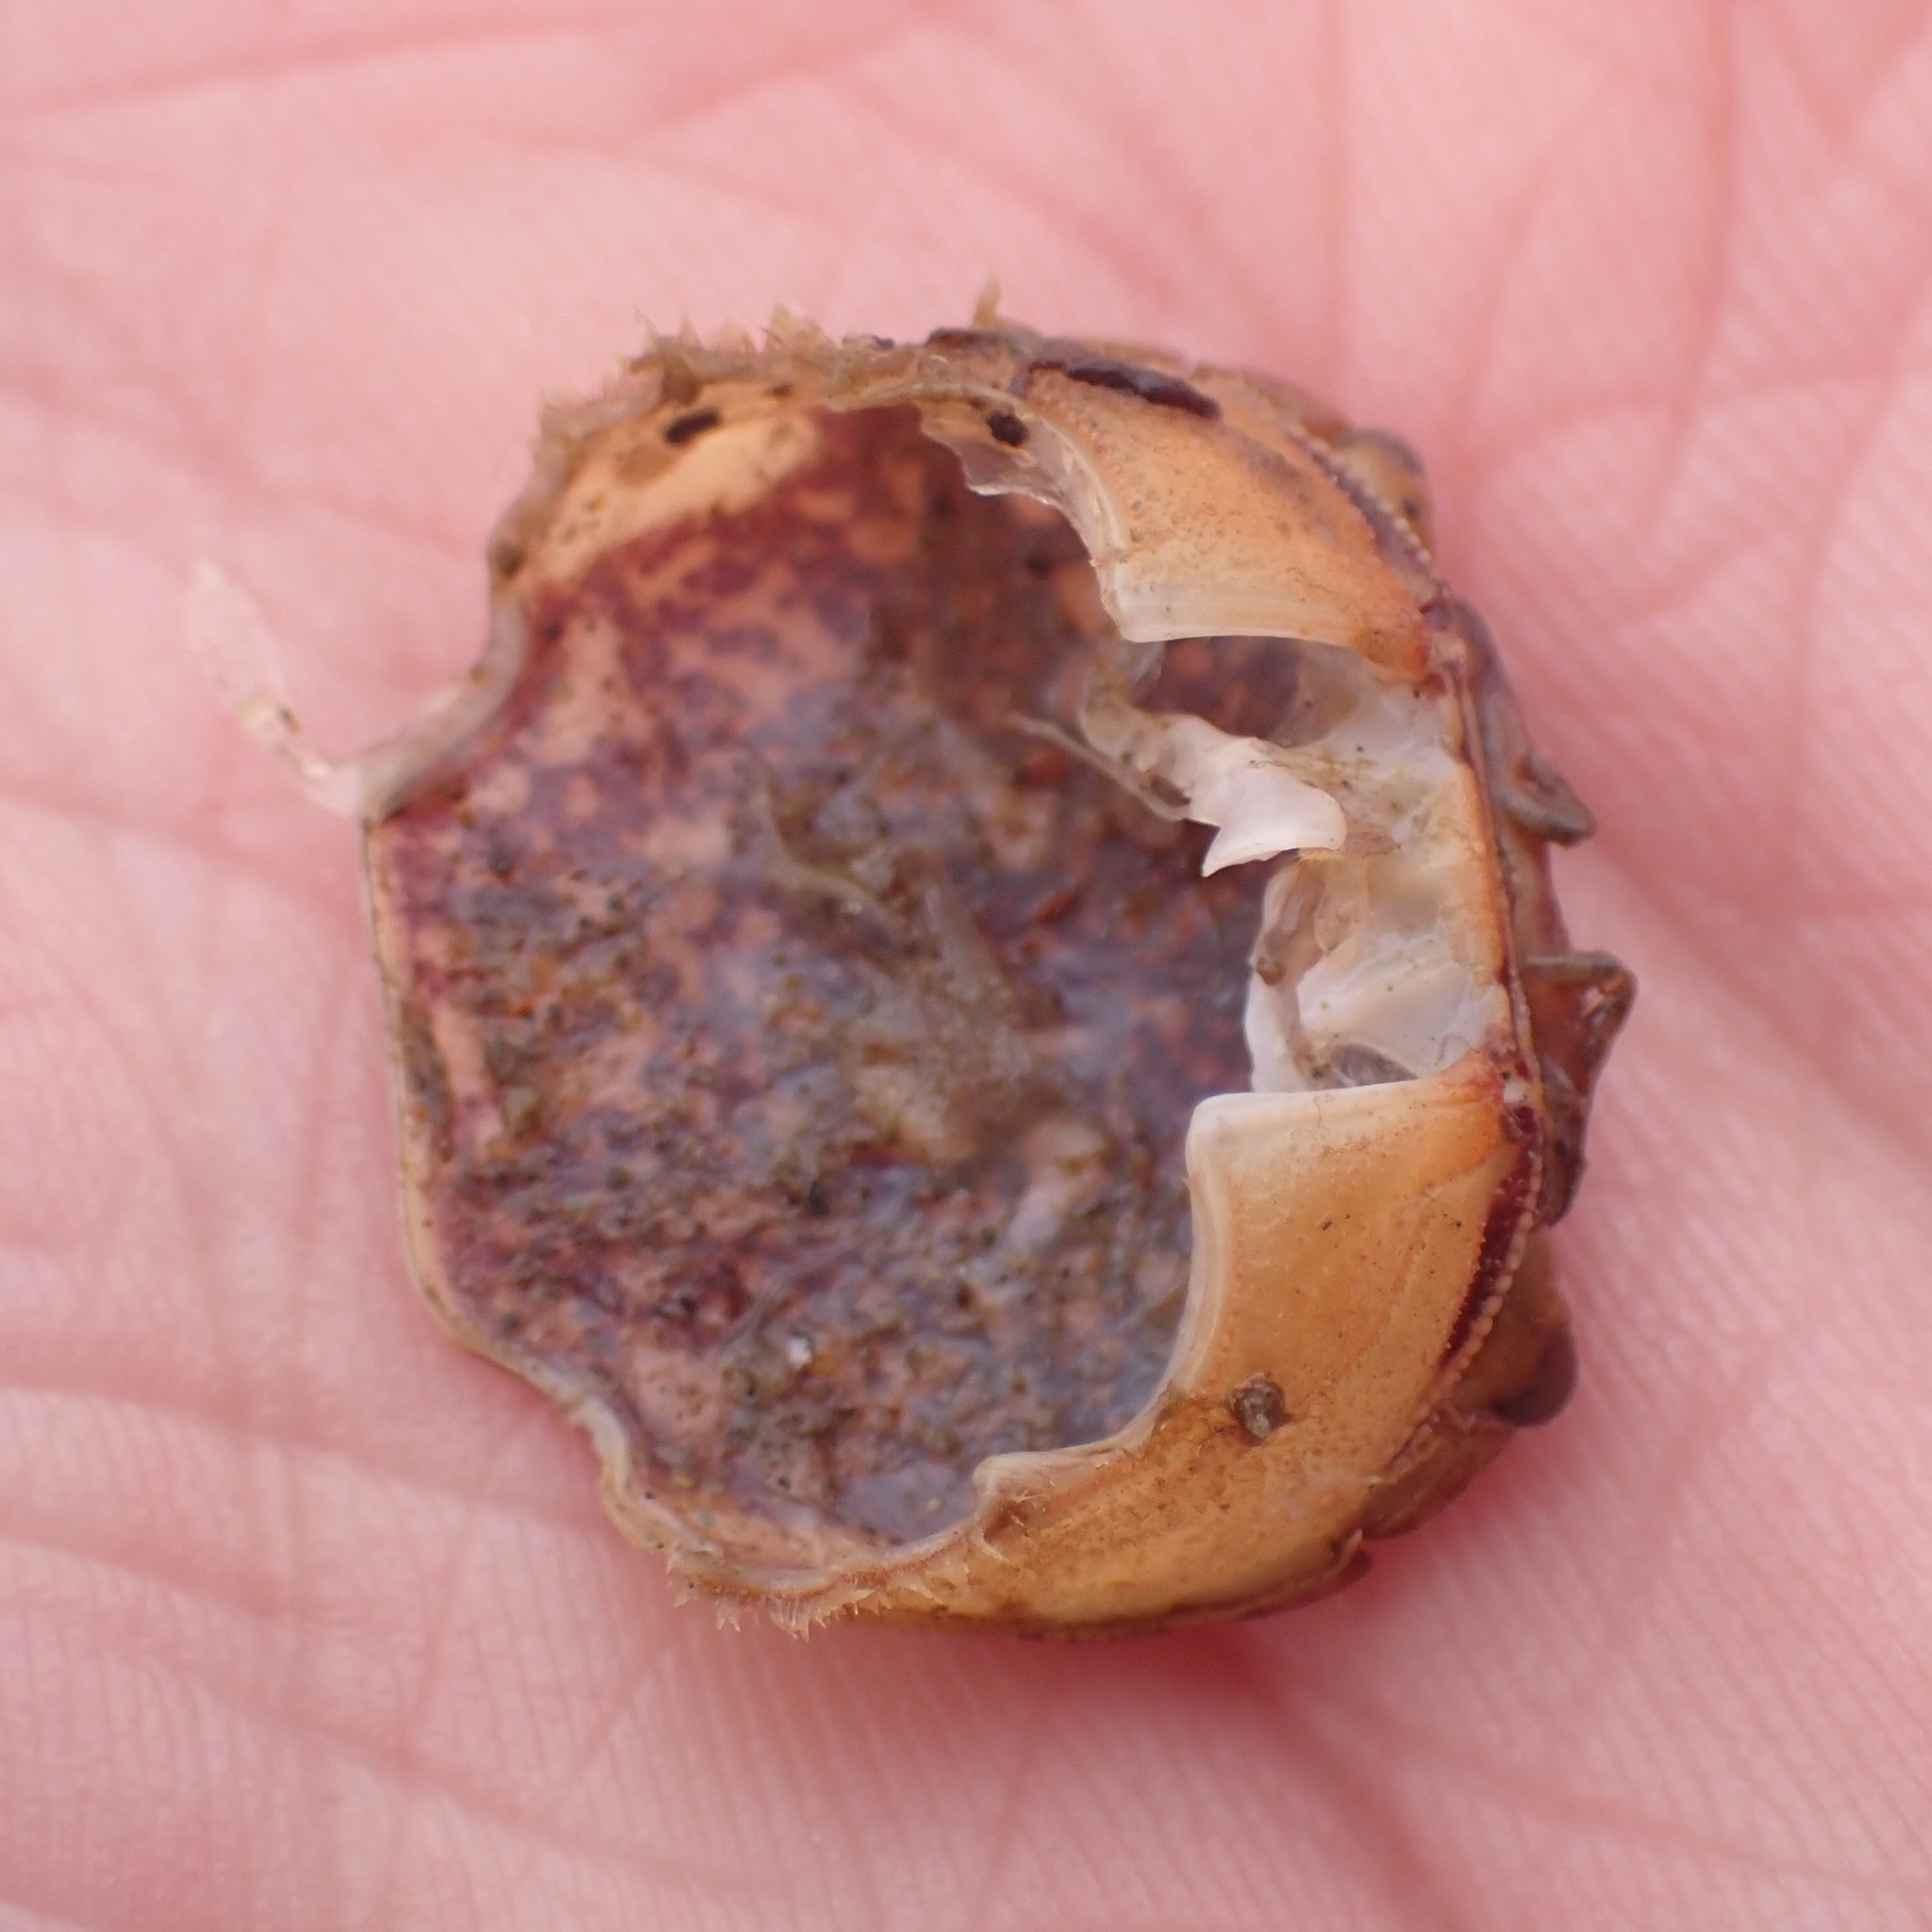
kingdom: Animalia
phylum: Arthropoda
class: Malacostraca
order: Decapoda
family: Varunidae
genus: Hemigrapsus
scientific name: Hemigrapsus nudus
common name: Purple shore crab
